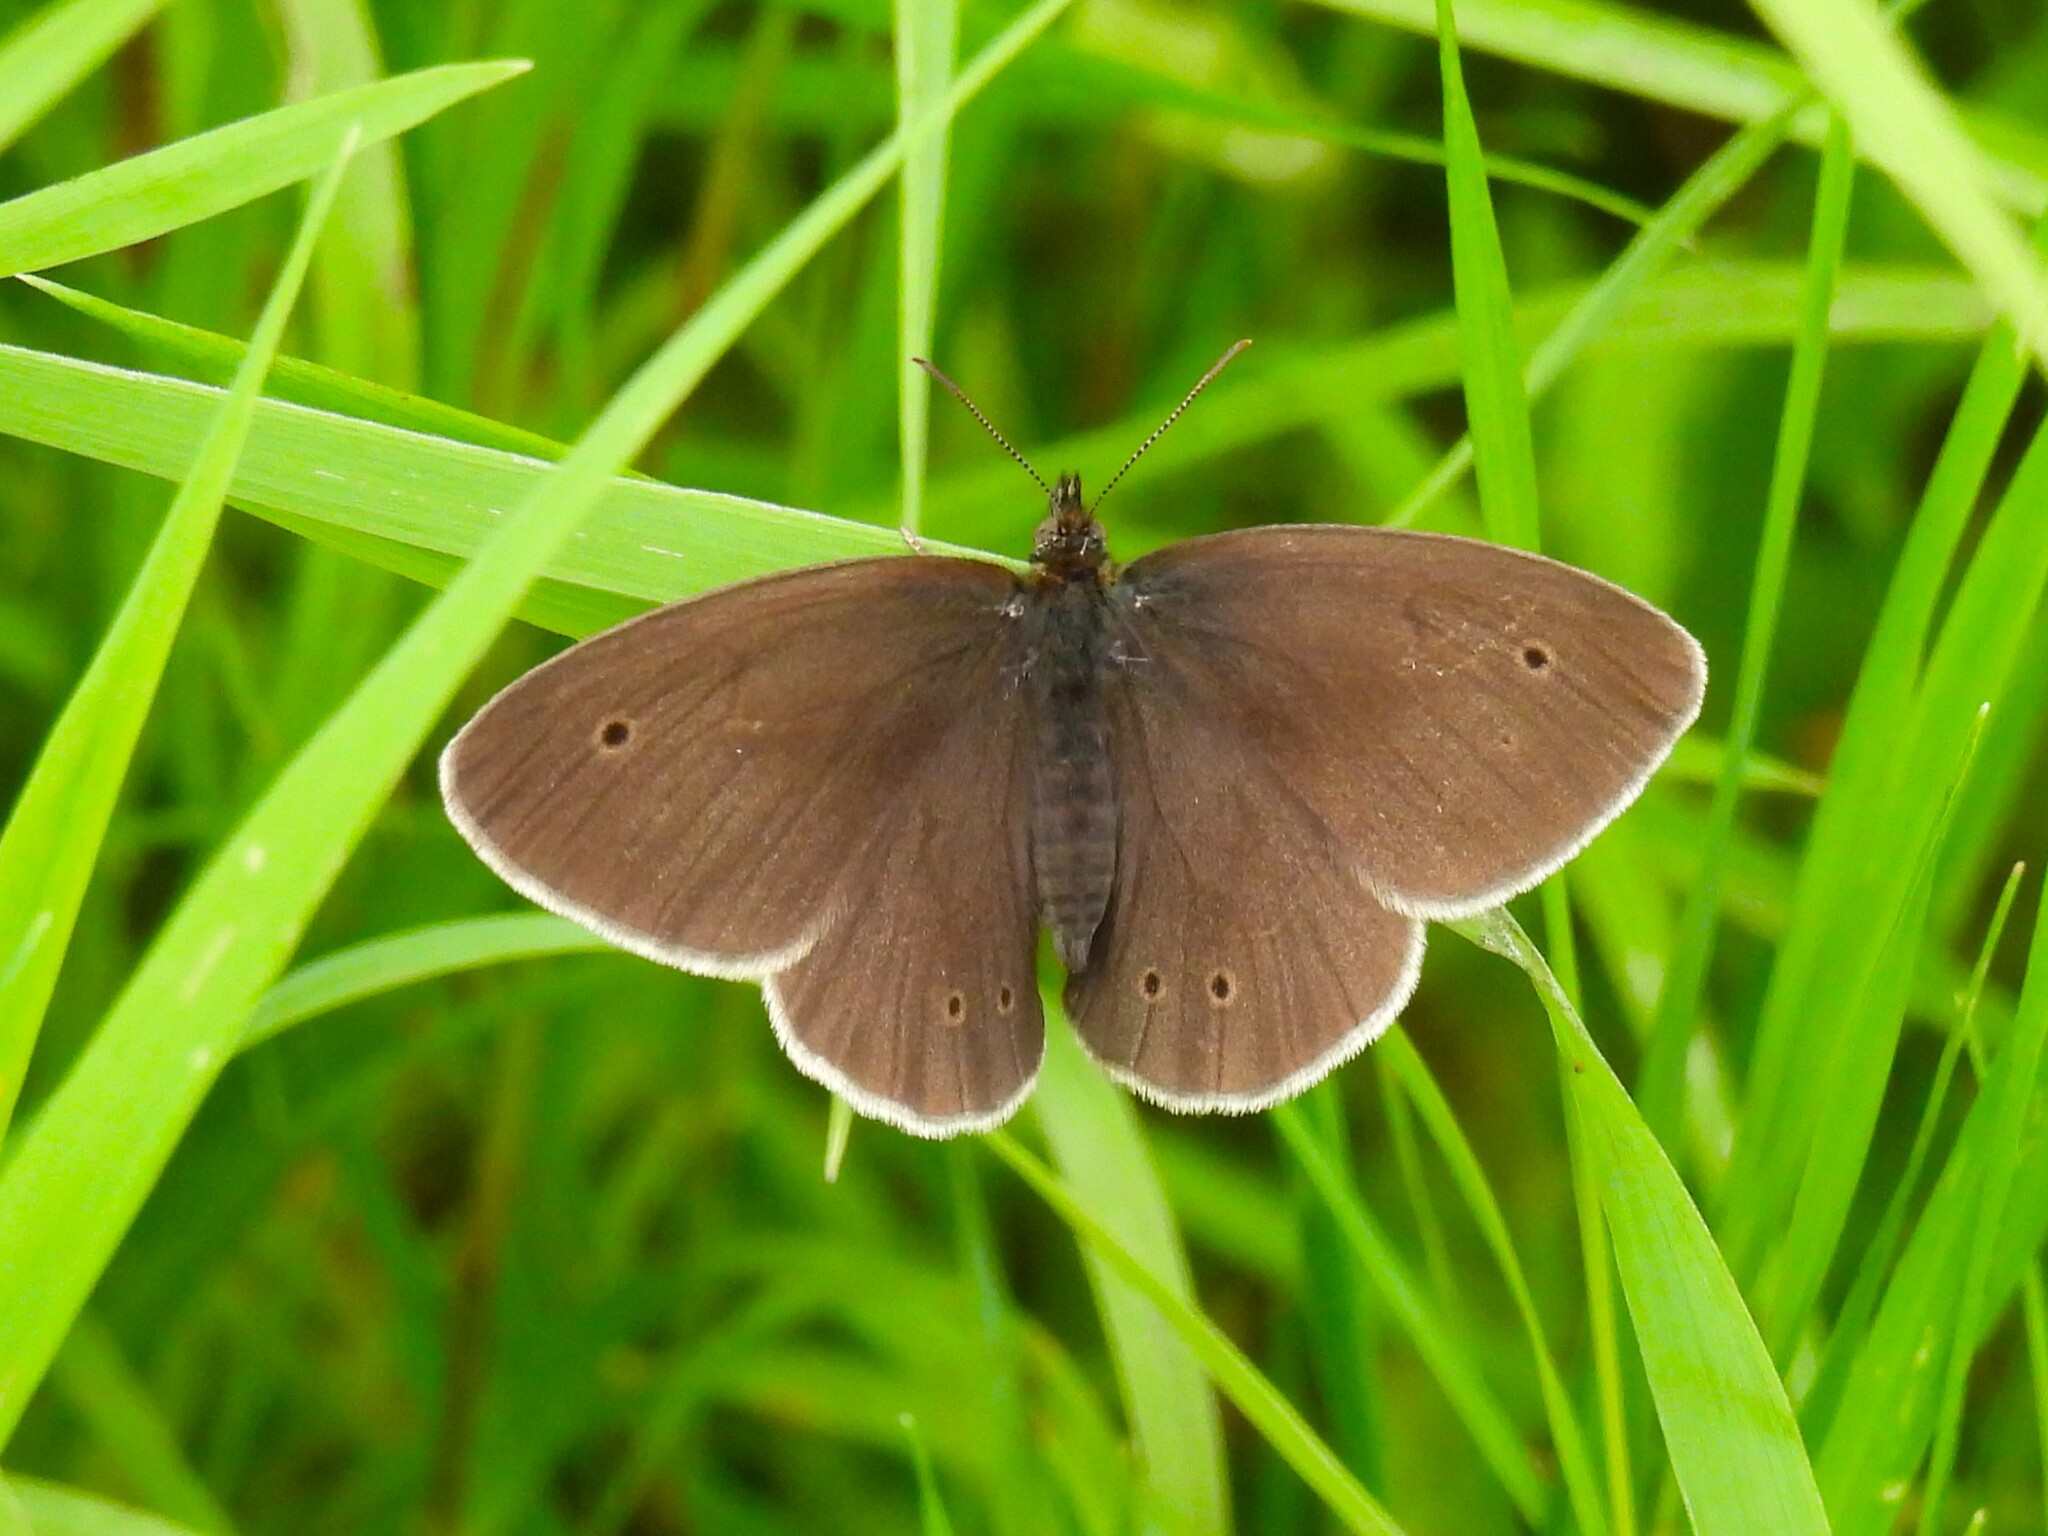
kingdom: Animalia
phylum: Arthropoda
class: Insecta
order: Lepidoptera
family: Nymphalidae
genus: Aphantopus
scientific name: Aphantopus hyperantus
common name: Ringlet
